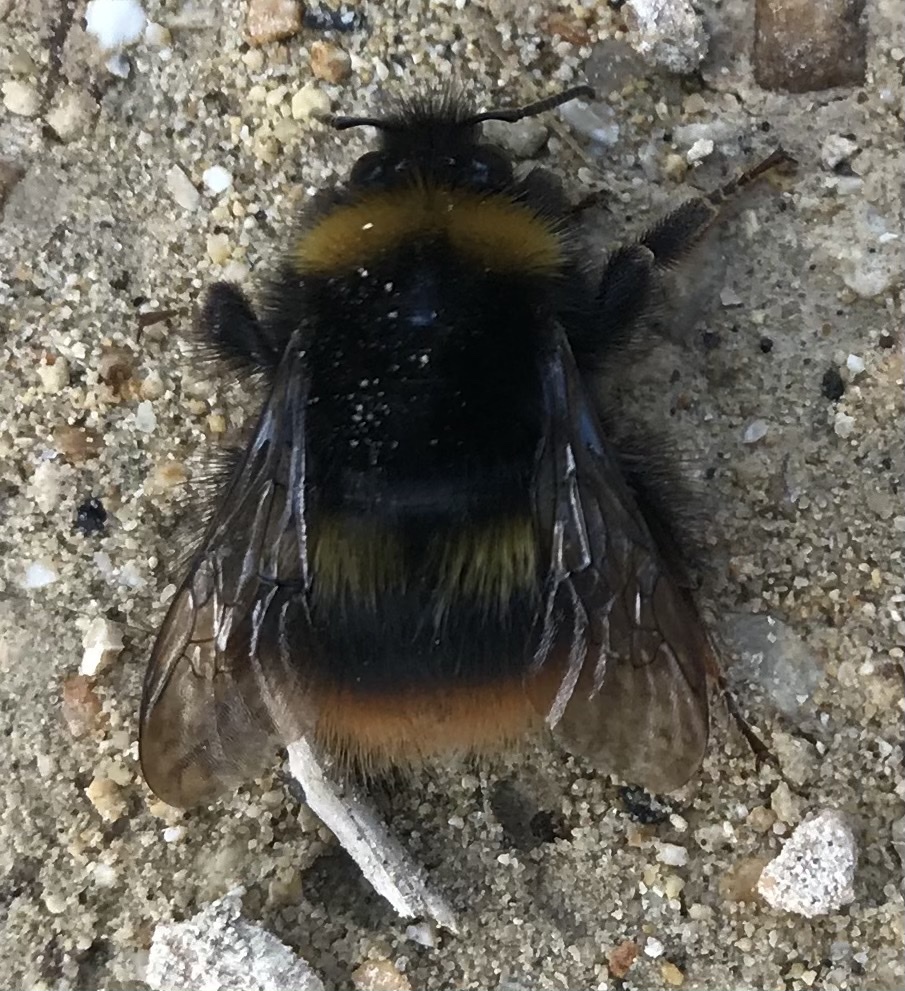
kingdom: Animalia
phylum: Arthropoda
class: Insecta
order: Hymenoptera
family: Apidae
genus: Bombus
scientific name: Bombus pratorum
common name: Early humble-bee
